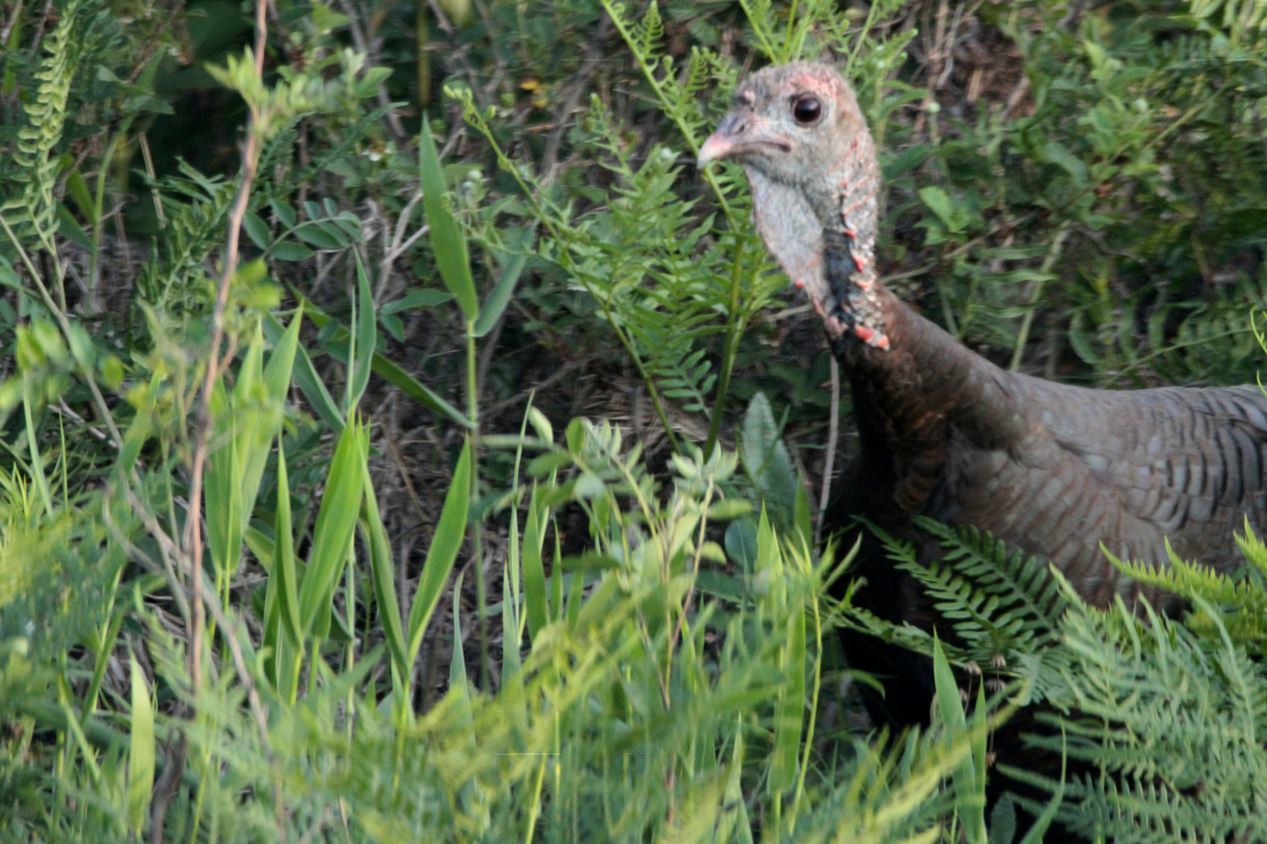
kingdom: Animalia
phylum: Chordata
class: Aves
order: Galliformes
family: Phasianidae
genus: Meleagris
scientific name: Meleagris gallopavo
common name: Wild turkey
